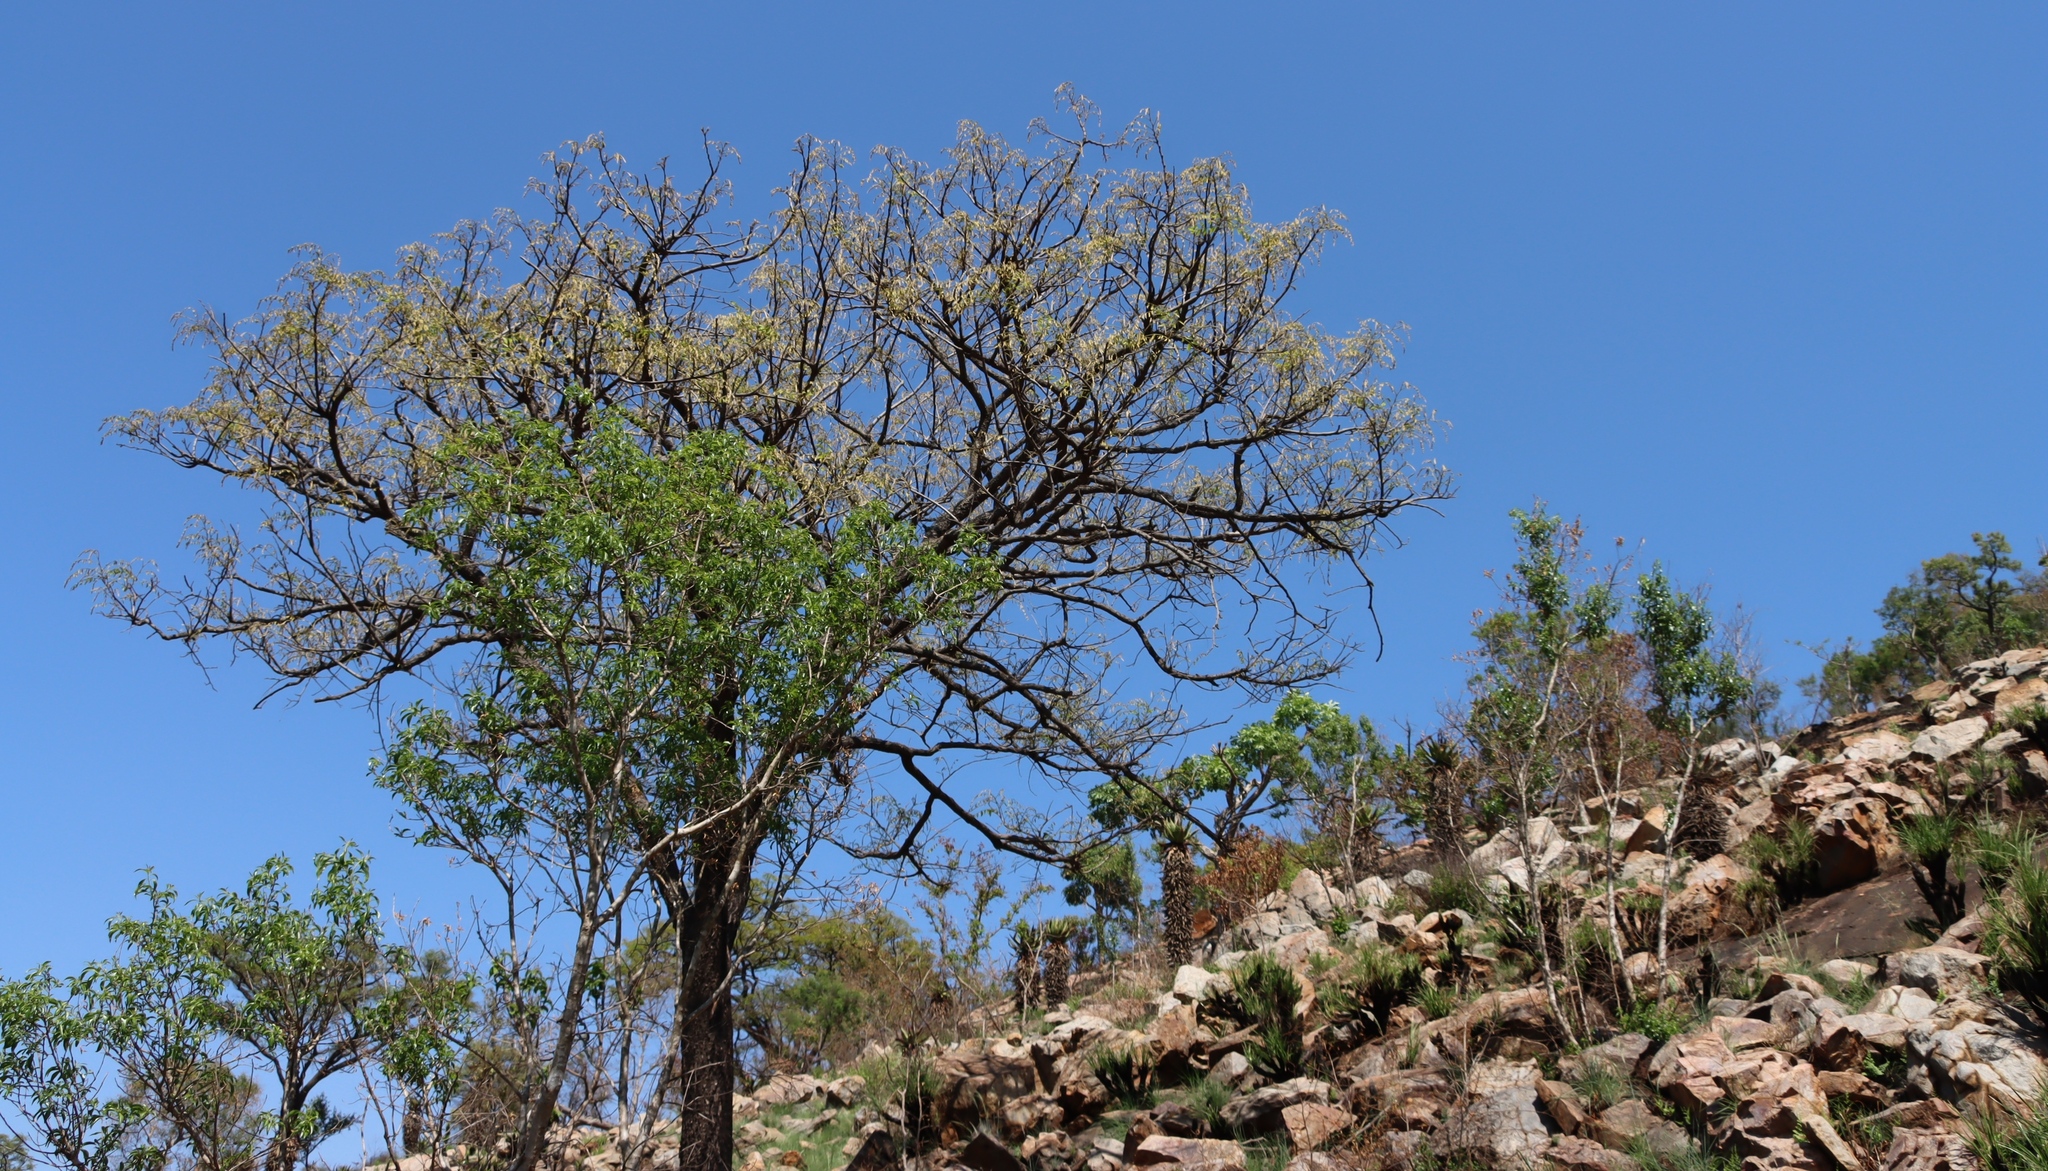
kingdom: Plantae
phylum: Tracheophyta
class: Magnoliopsida
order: Fabales
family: Fabaceae
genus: Pterocarpus
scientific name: Pterocarpus angolensis
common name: Bloodwood tree
